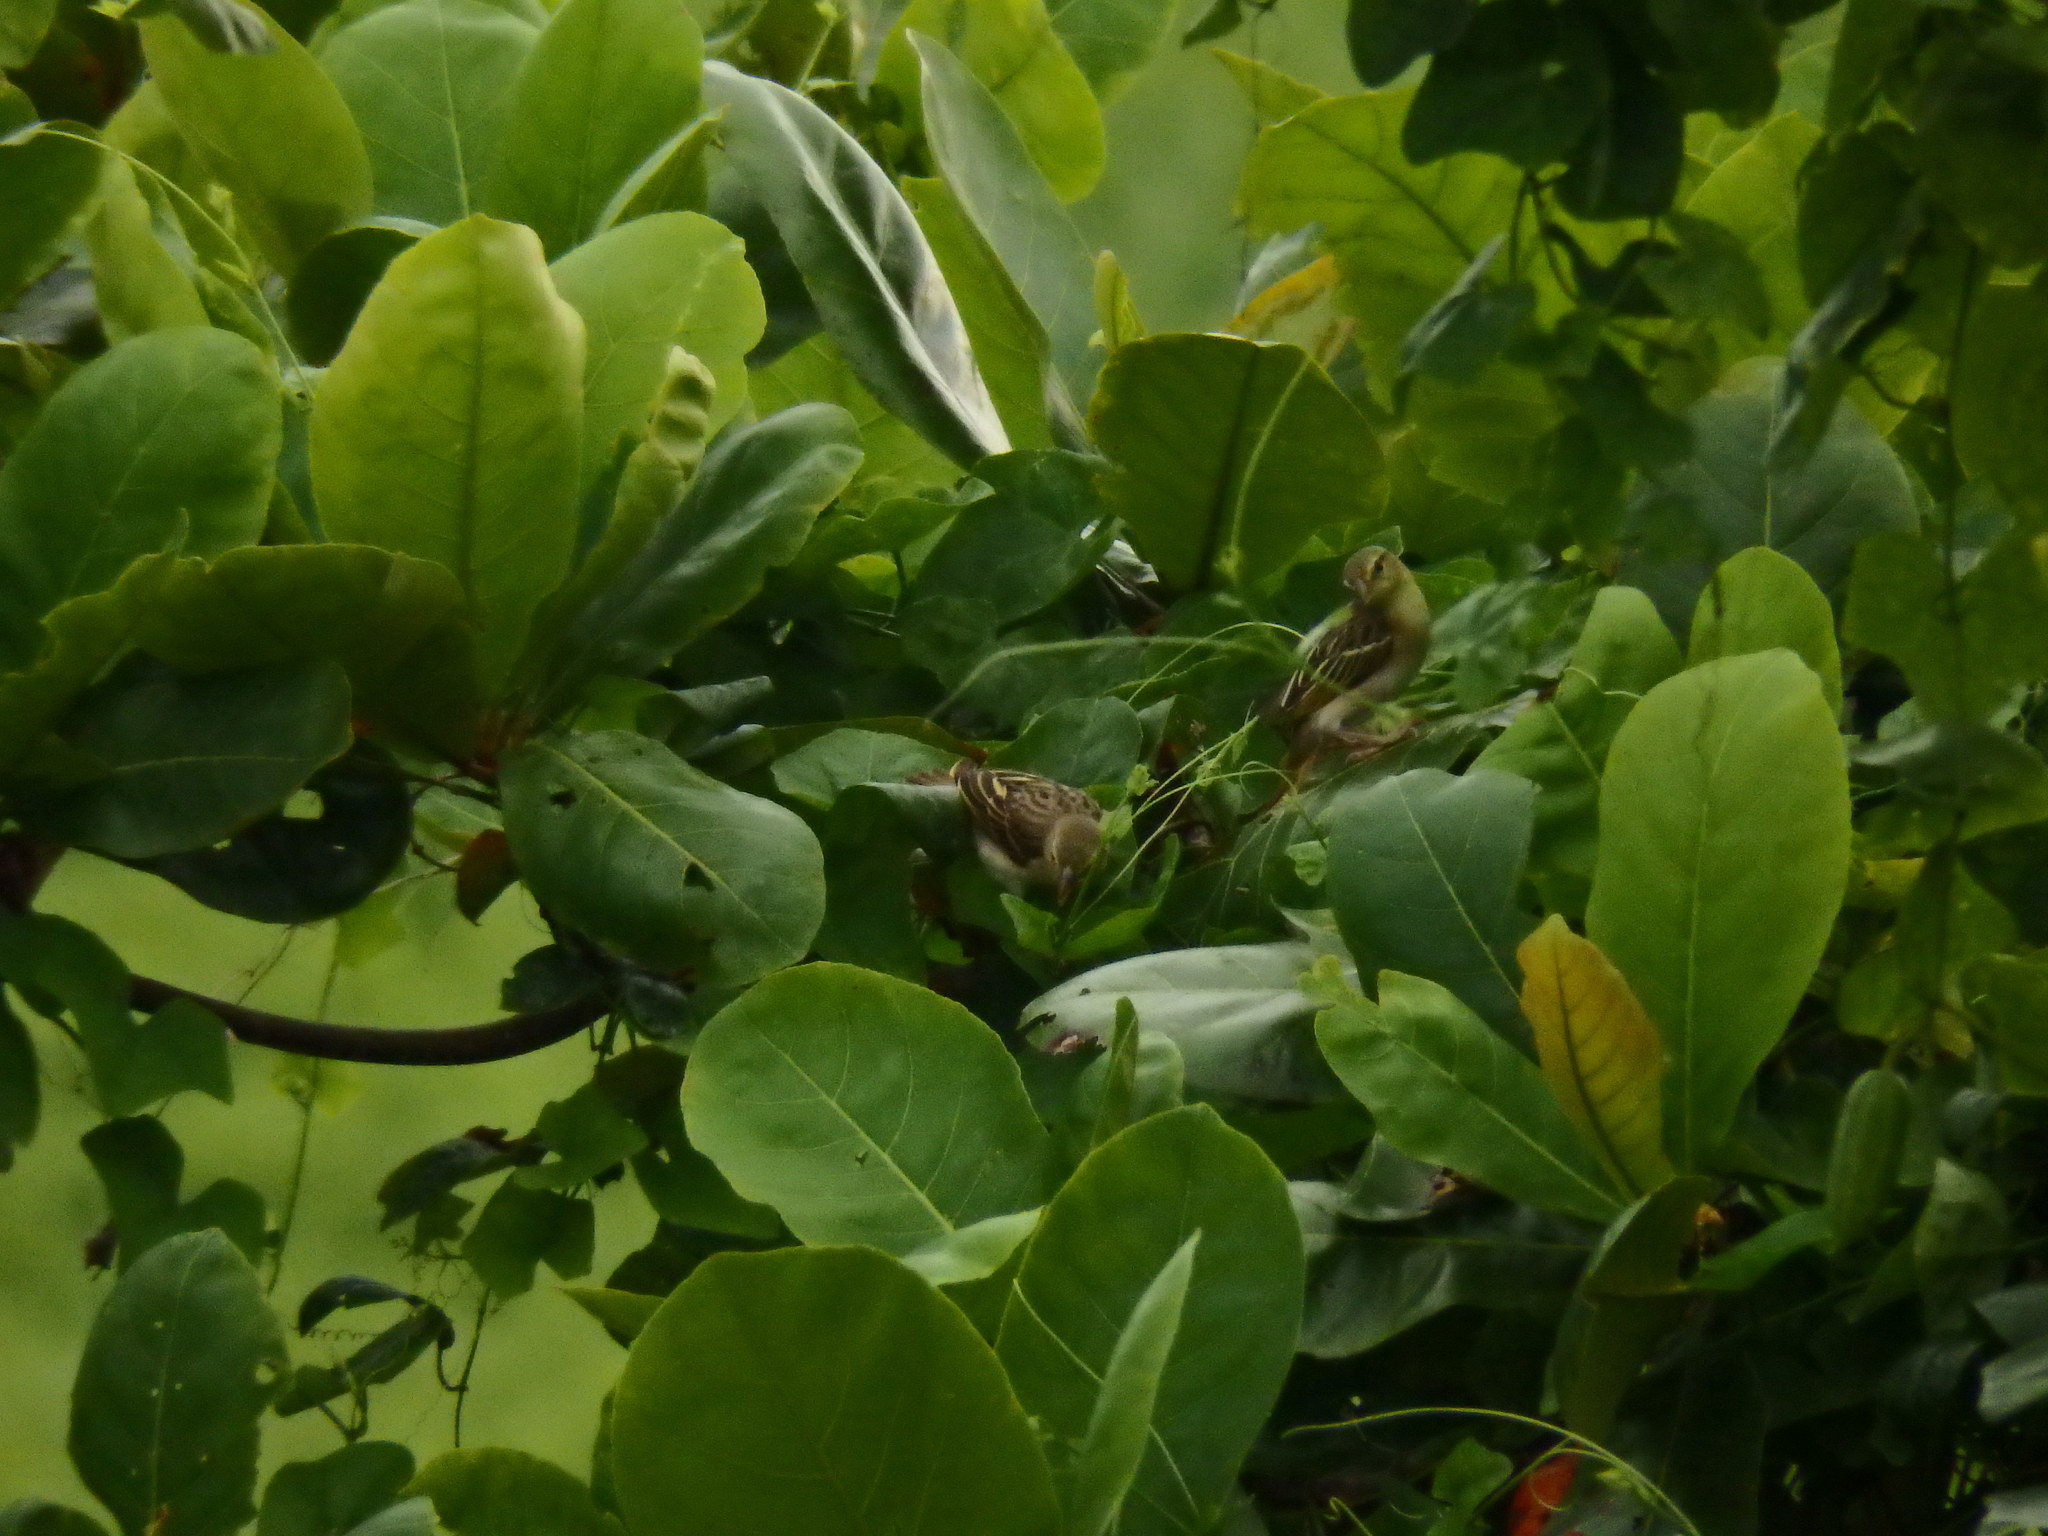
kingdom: Animalia
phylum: Chordata
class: Aves
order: Passeriformes
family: Ploceidae
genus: Ploceus
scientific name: Ploceus jacksoni
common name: Golden-backed weaver
